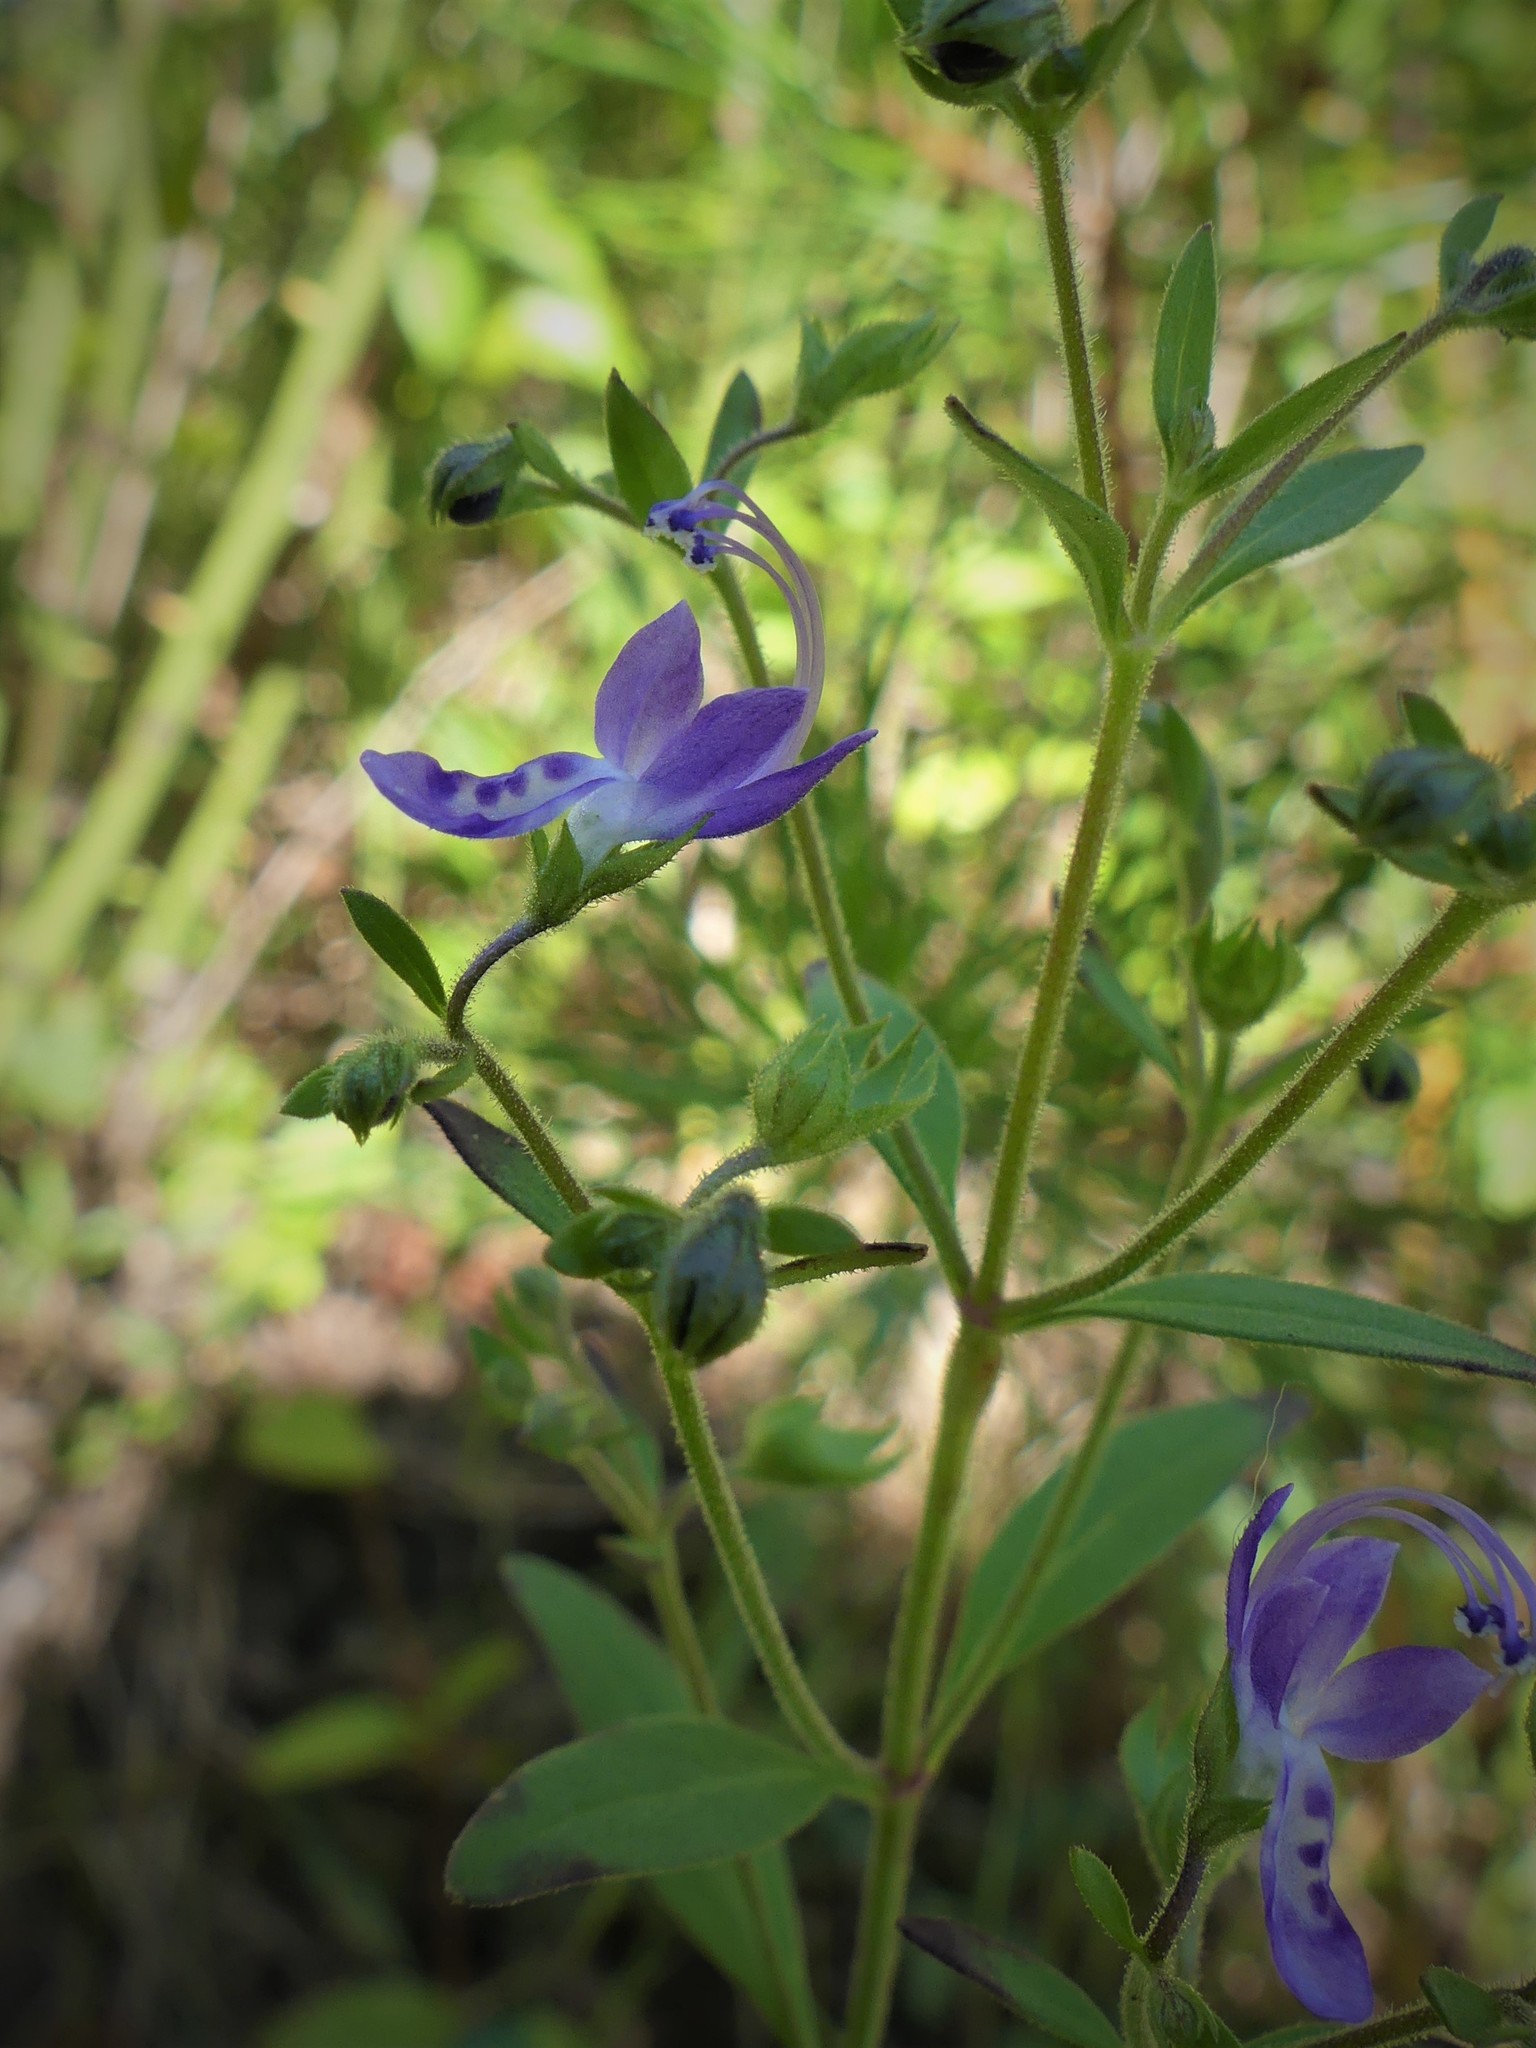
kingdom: Plantae
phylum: Tracheophyta
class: Magnoliopsida
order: Lamiales
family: Lamiaceae
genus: Trichostema
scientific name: Trichostema dichotomum
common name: Bastard pennyroyal
